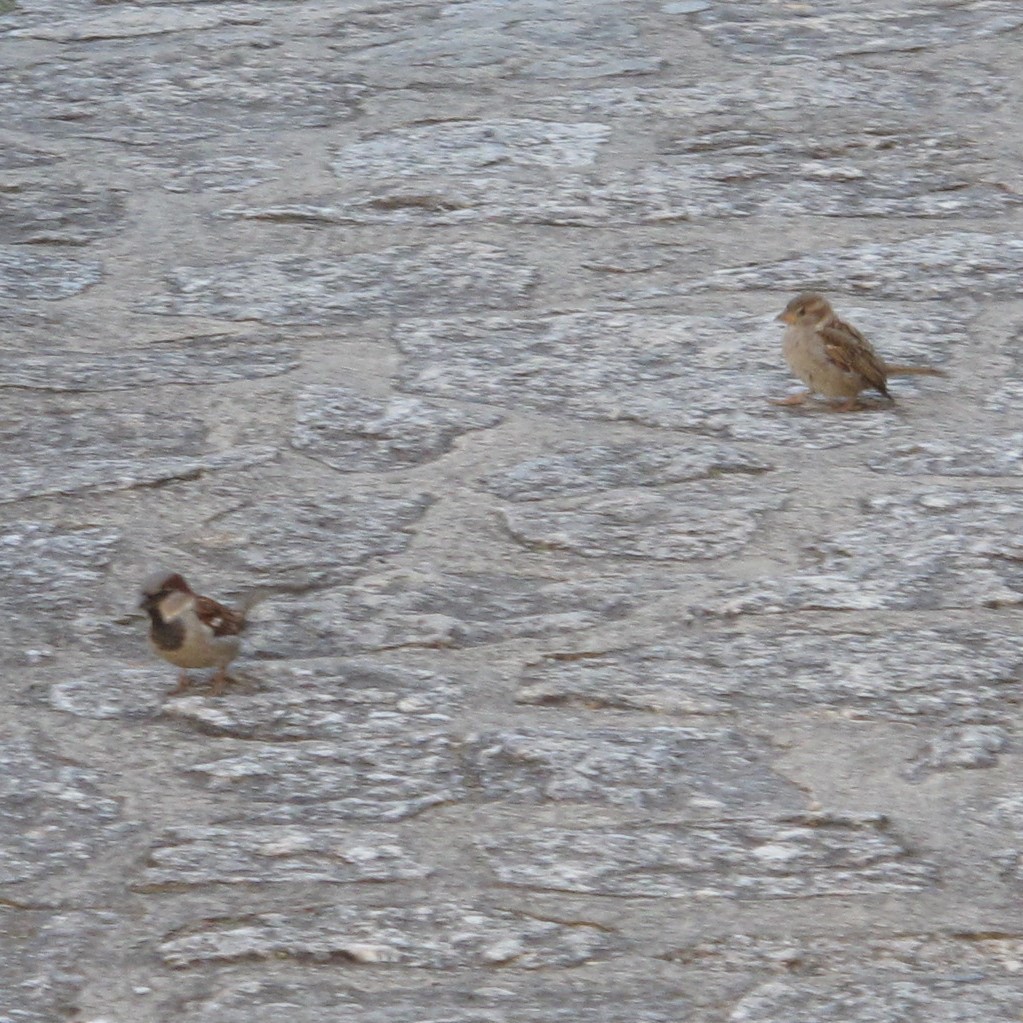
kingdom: Animalia
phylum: Chordata
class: Aves
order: Passeriformes
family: Passeridae
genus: Passer
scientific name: Passer domesticus
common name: House sparrow
